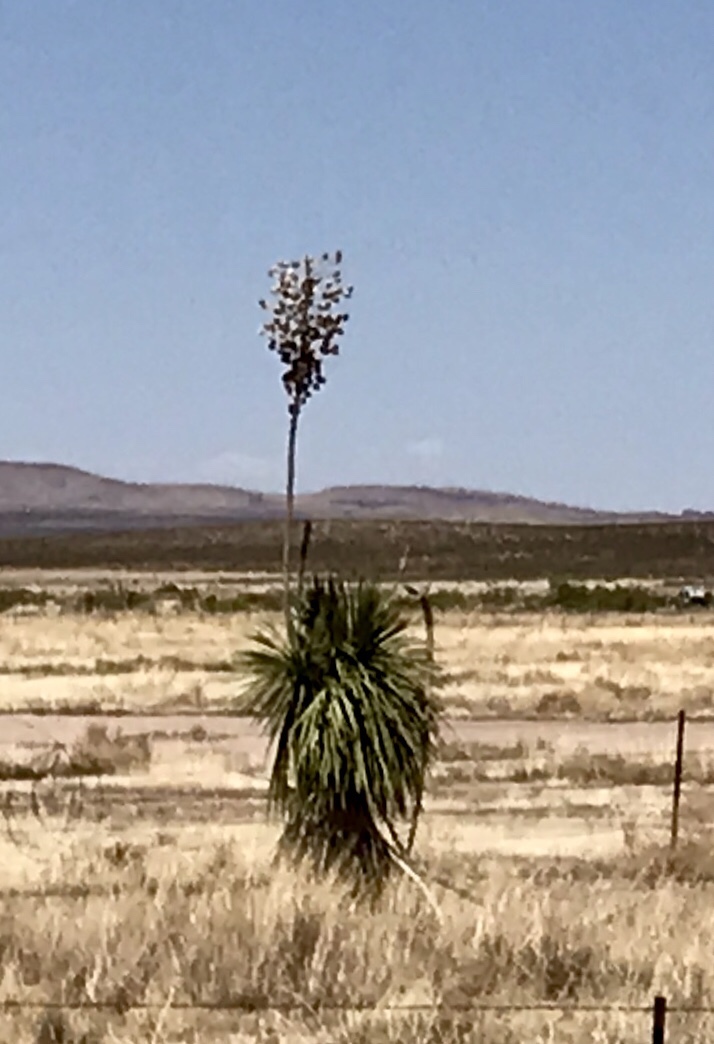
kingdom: Plantae
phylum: Tracheophyta
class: Liliopsida
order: Asparagales
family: Asparagaceae
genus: Yucca
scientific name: Yucca elata
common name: Palmella
